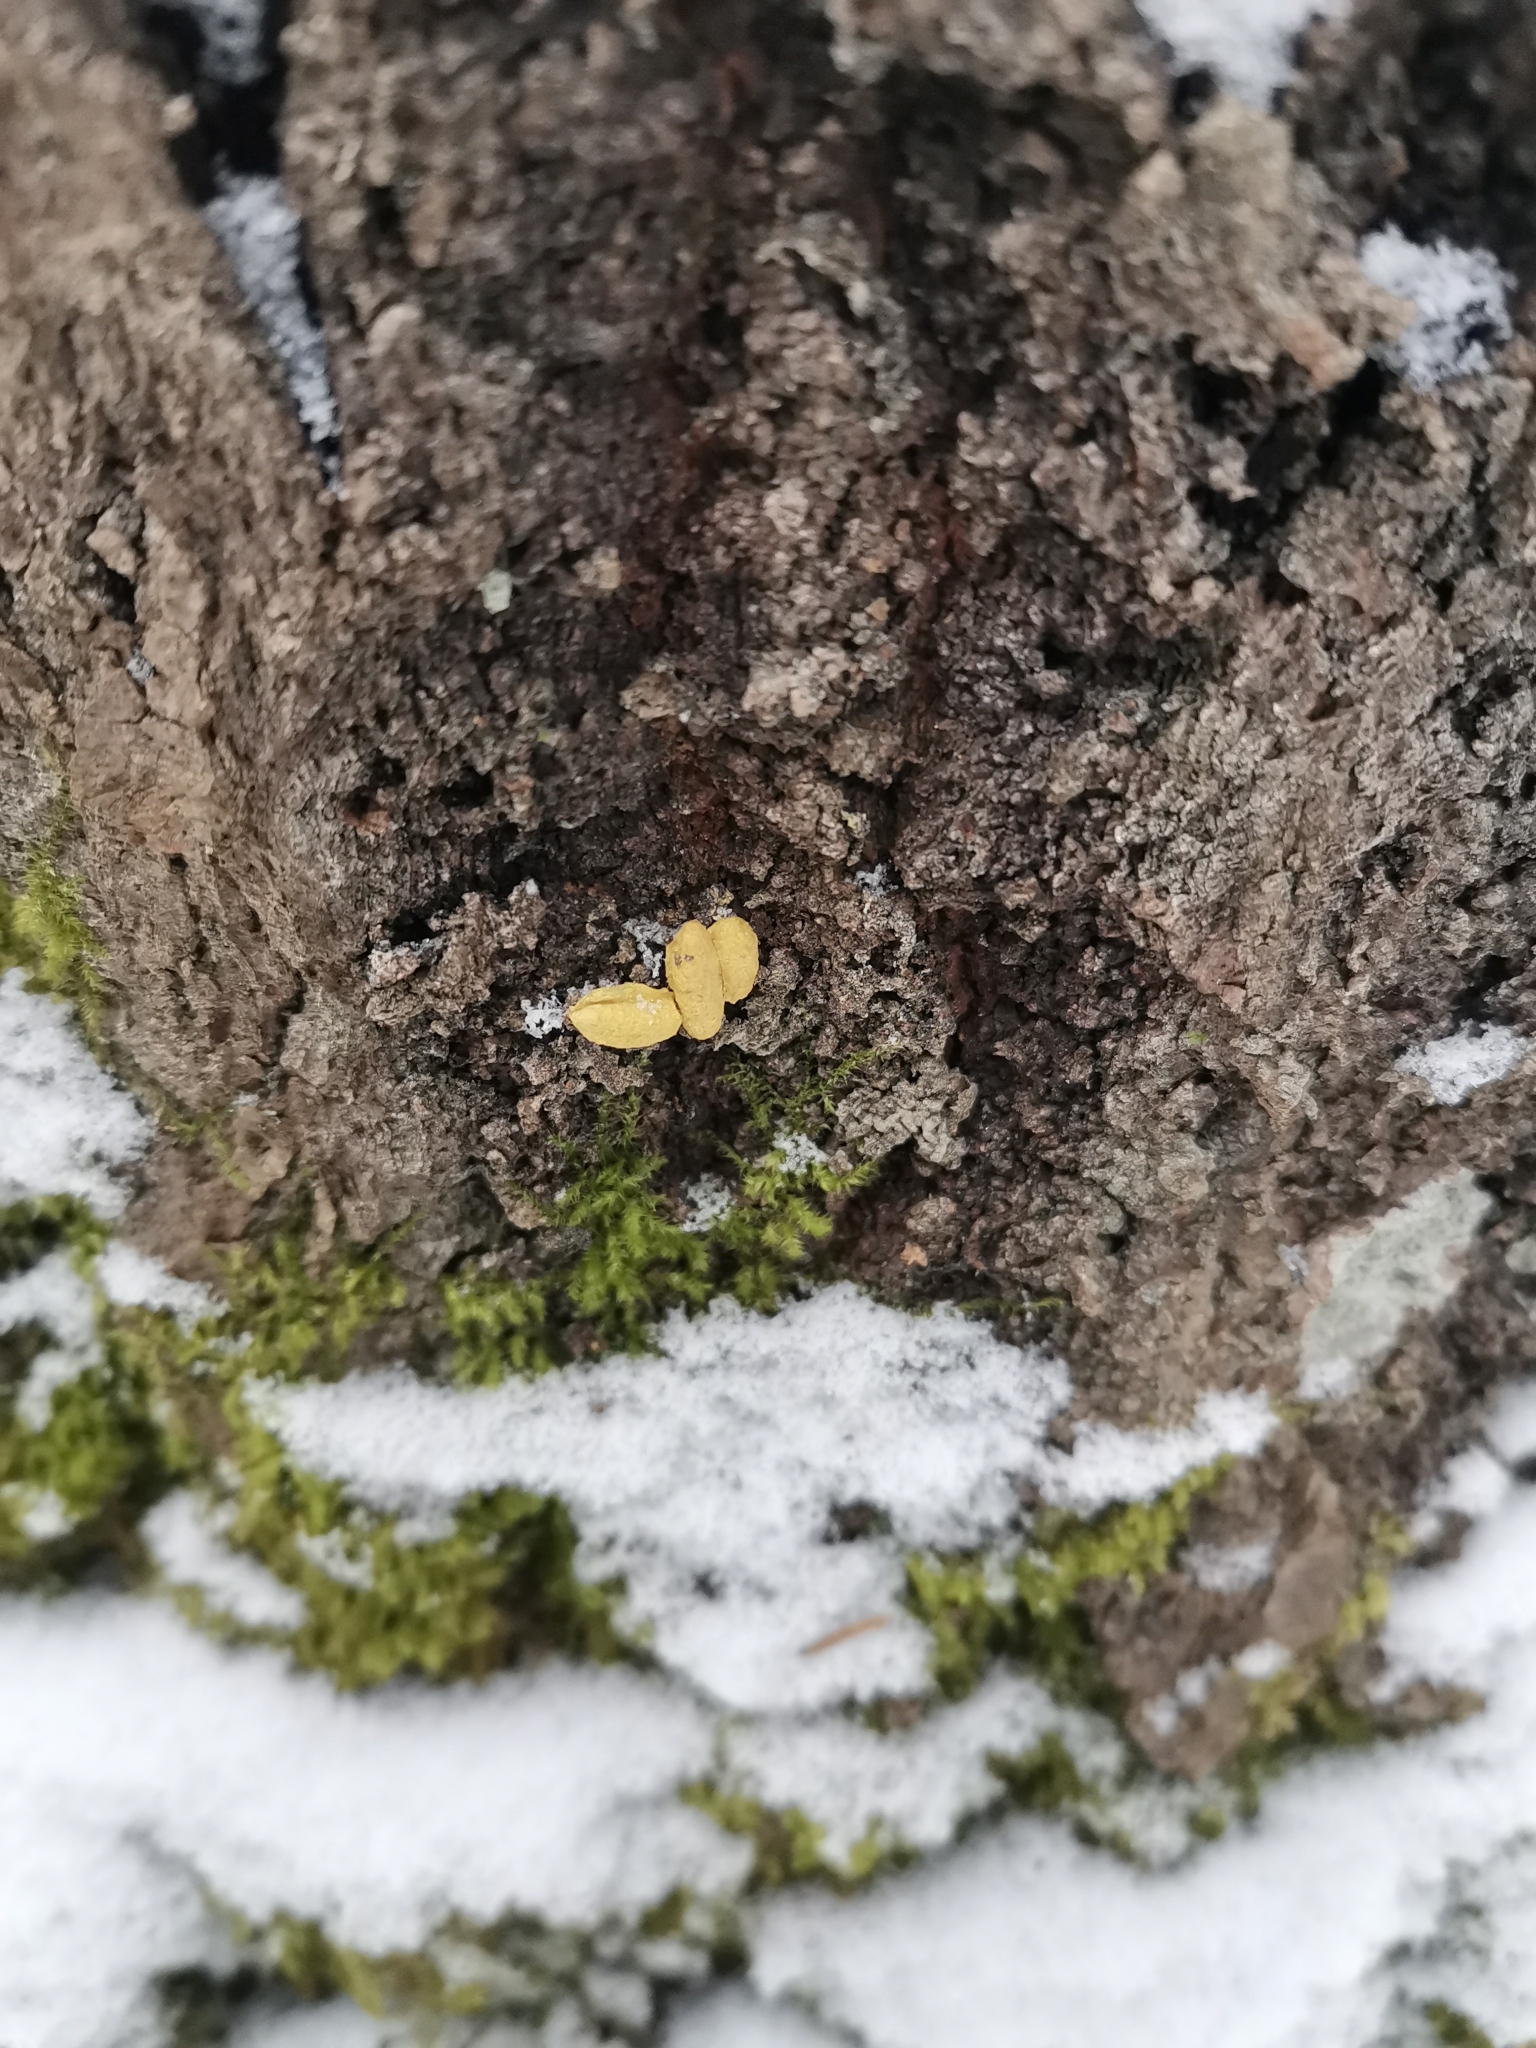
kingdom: Animalia
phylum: Chordata
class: Mammalia
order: Rodentia
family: Sciuridae
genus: Pteromys
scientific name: Pteromys volans
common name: Siberian flying squirrel
